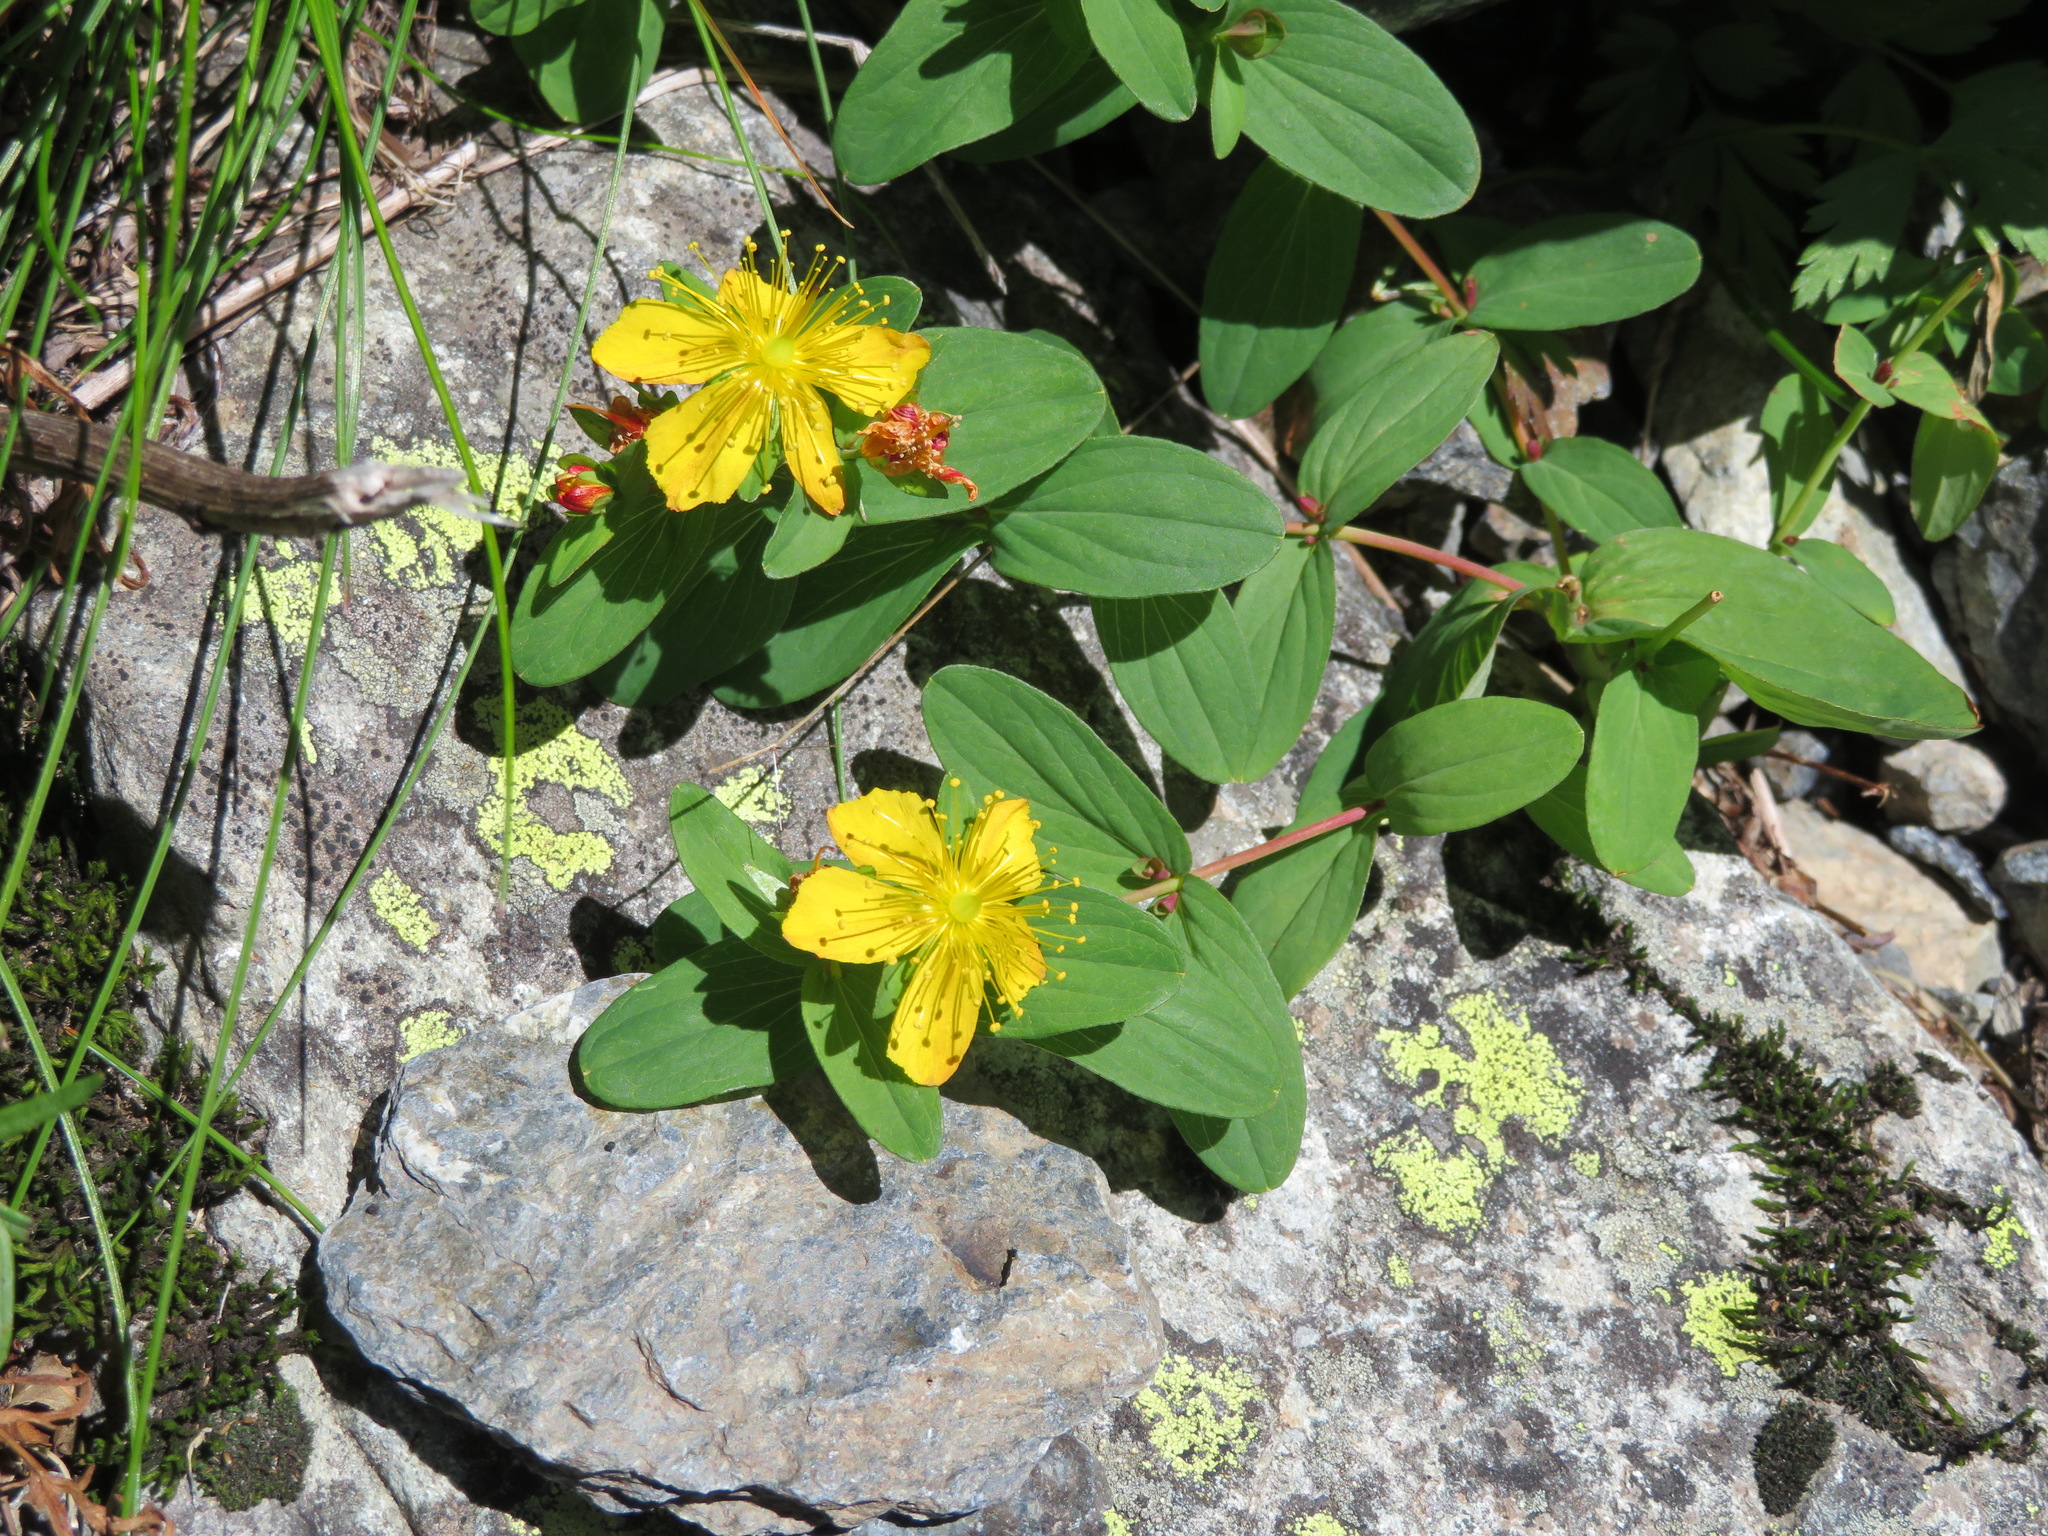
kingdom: Plantae
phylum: Tracheophyta
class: Magnoliopsida
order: Malpighiales
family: Hypericaceae
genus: Hypericum
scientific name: Hypericum kamtschaticum
